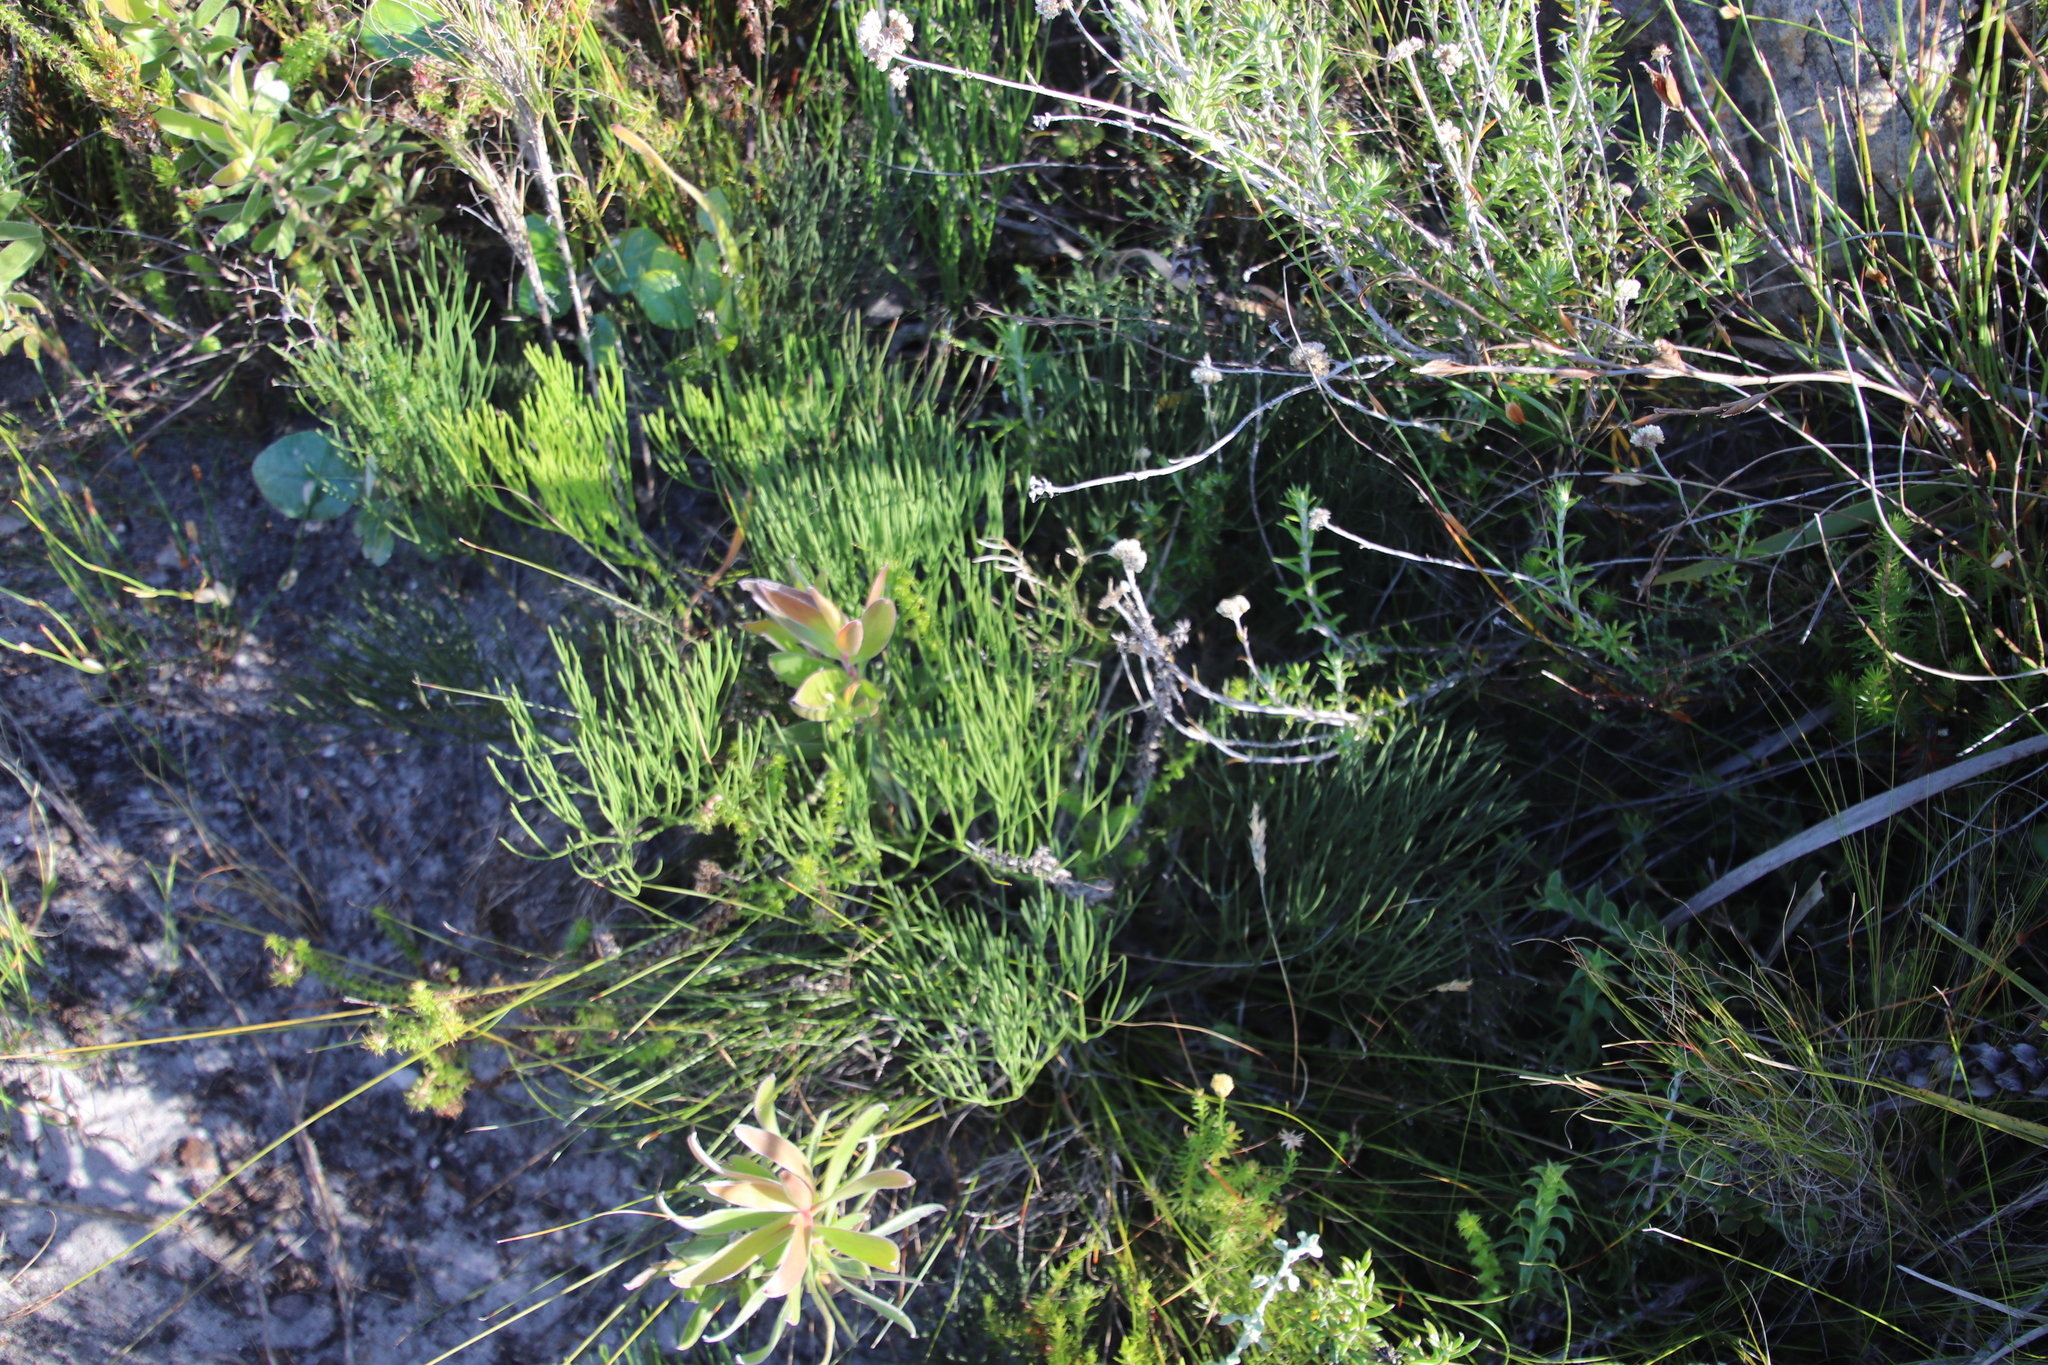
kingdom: Plantae
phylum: Tracheophyta
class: Magnoliopsida
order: Apiales
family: Apiaceae
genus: Nanobubon
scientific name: Nanobubon strictum
